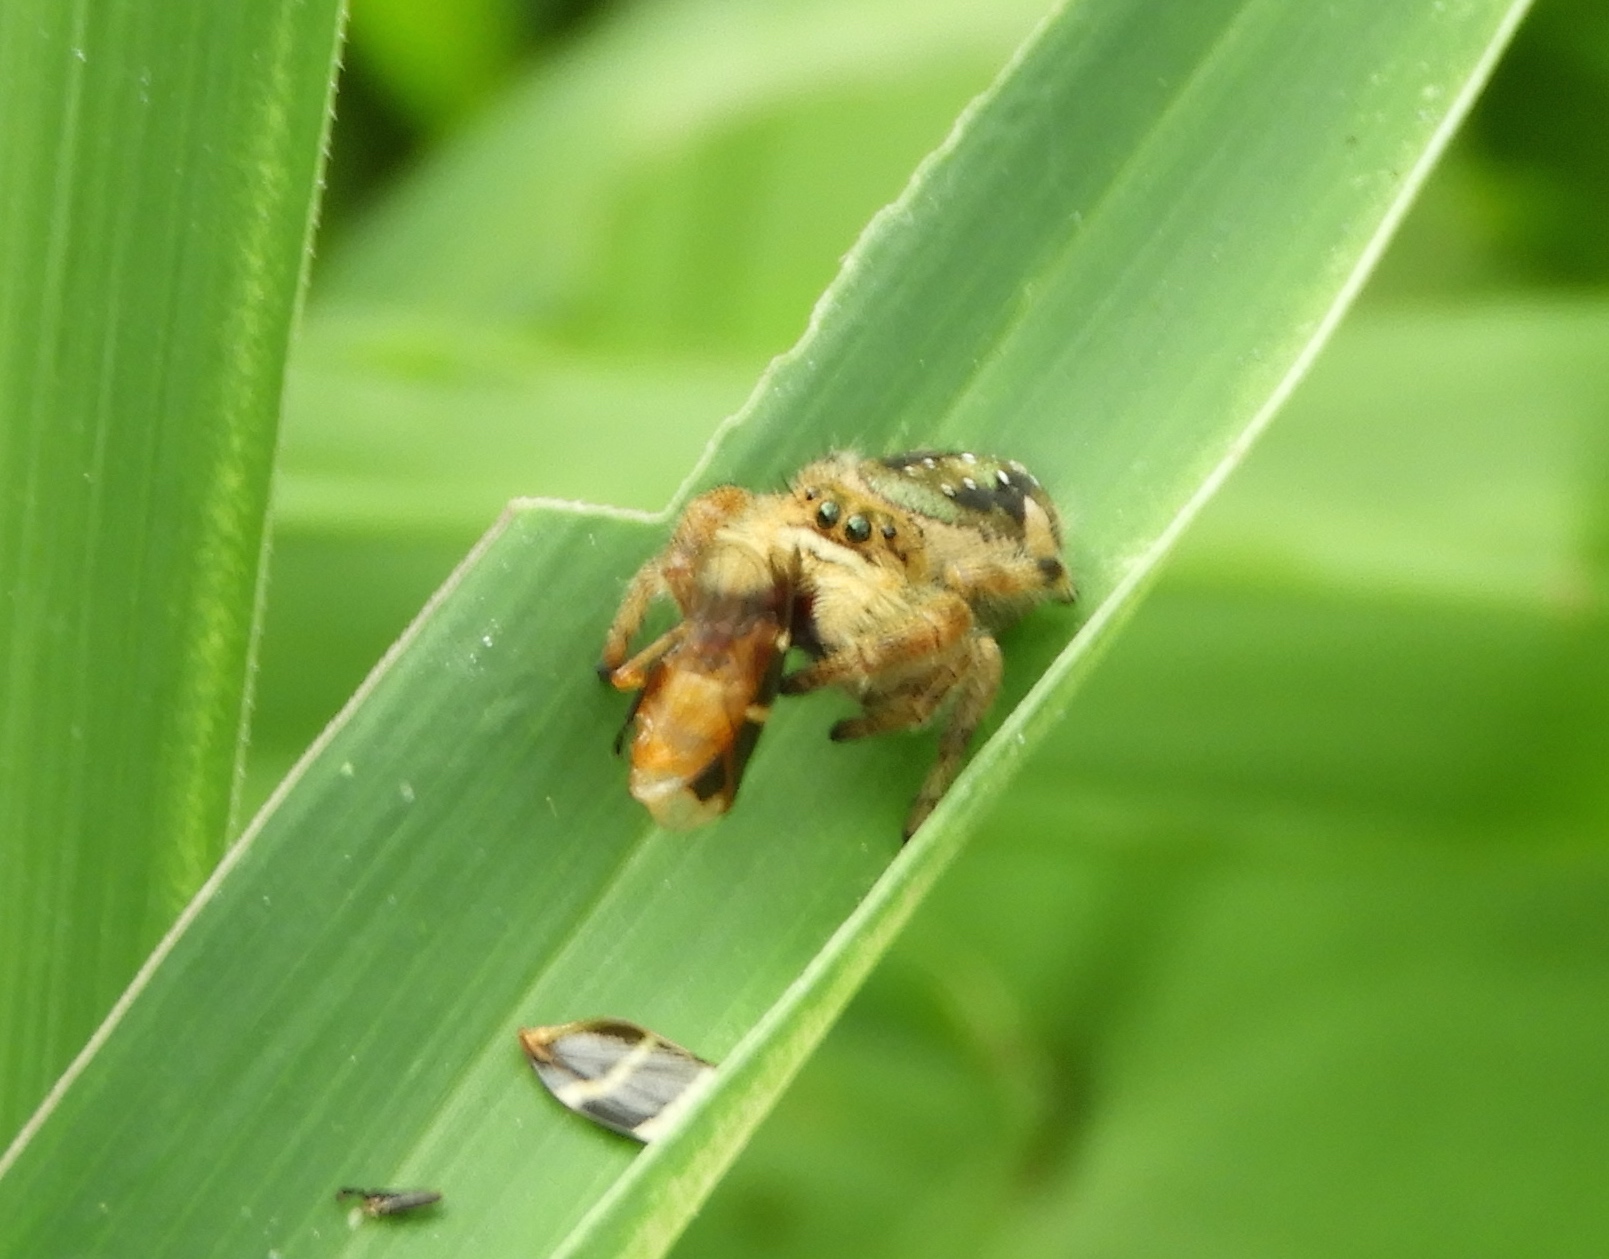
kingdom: Animalia
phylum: Arthropoda
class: Arachnida
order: Araneae
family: Salticidae
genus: Paraphidippus
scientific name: Paraphidippus
